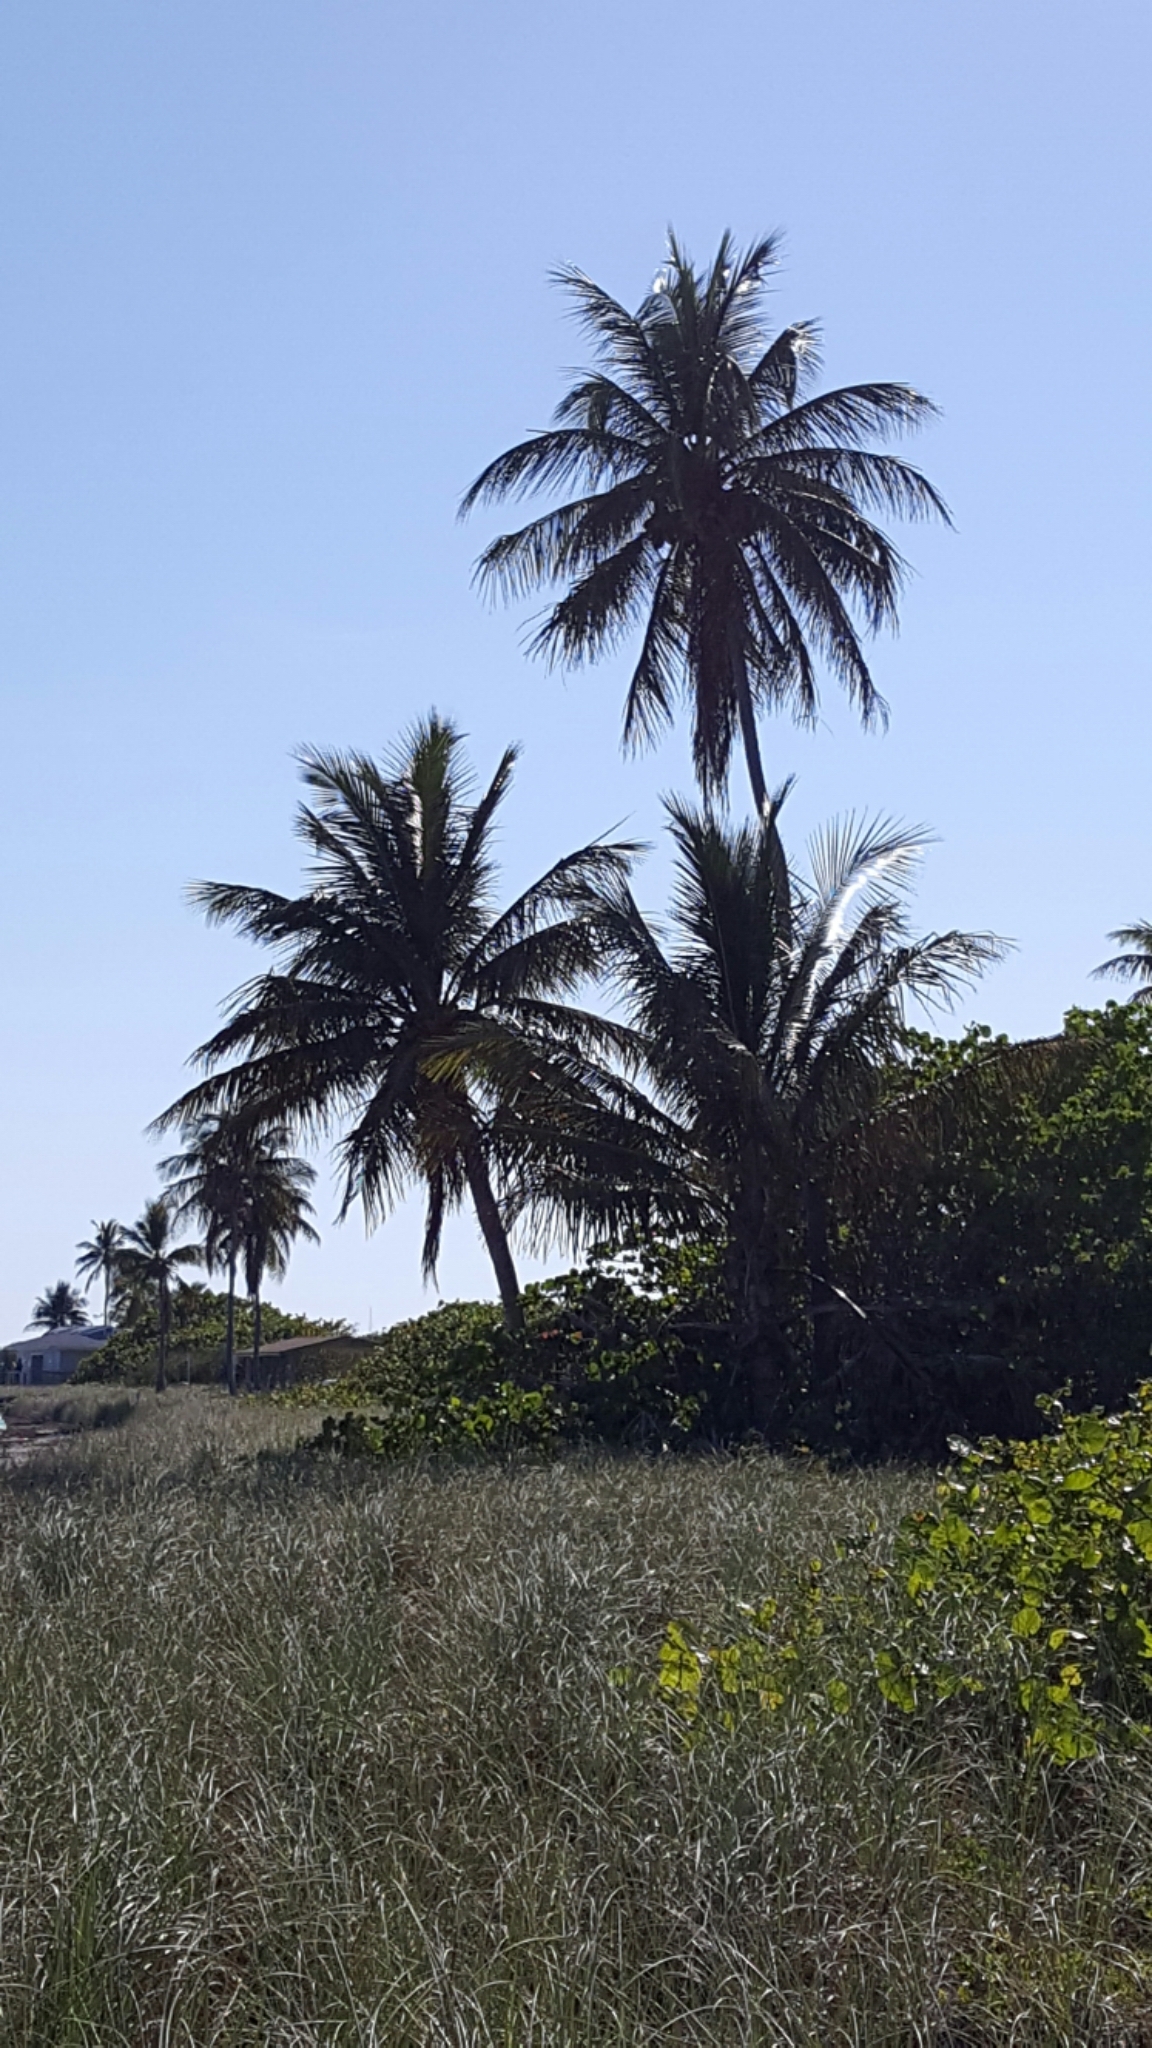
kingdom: Plantae
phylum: Tracheophyta
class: Liliopsida
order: Arecales
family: Arecaceae
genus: Cocos
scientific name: Cocos nucifera
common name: Coconut palm
